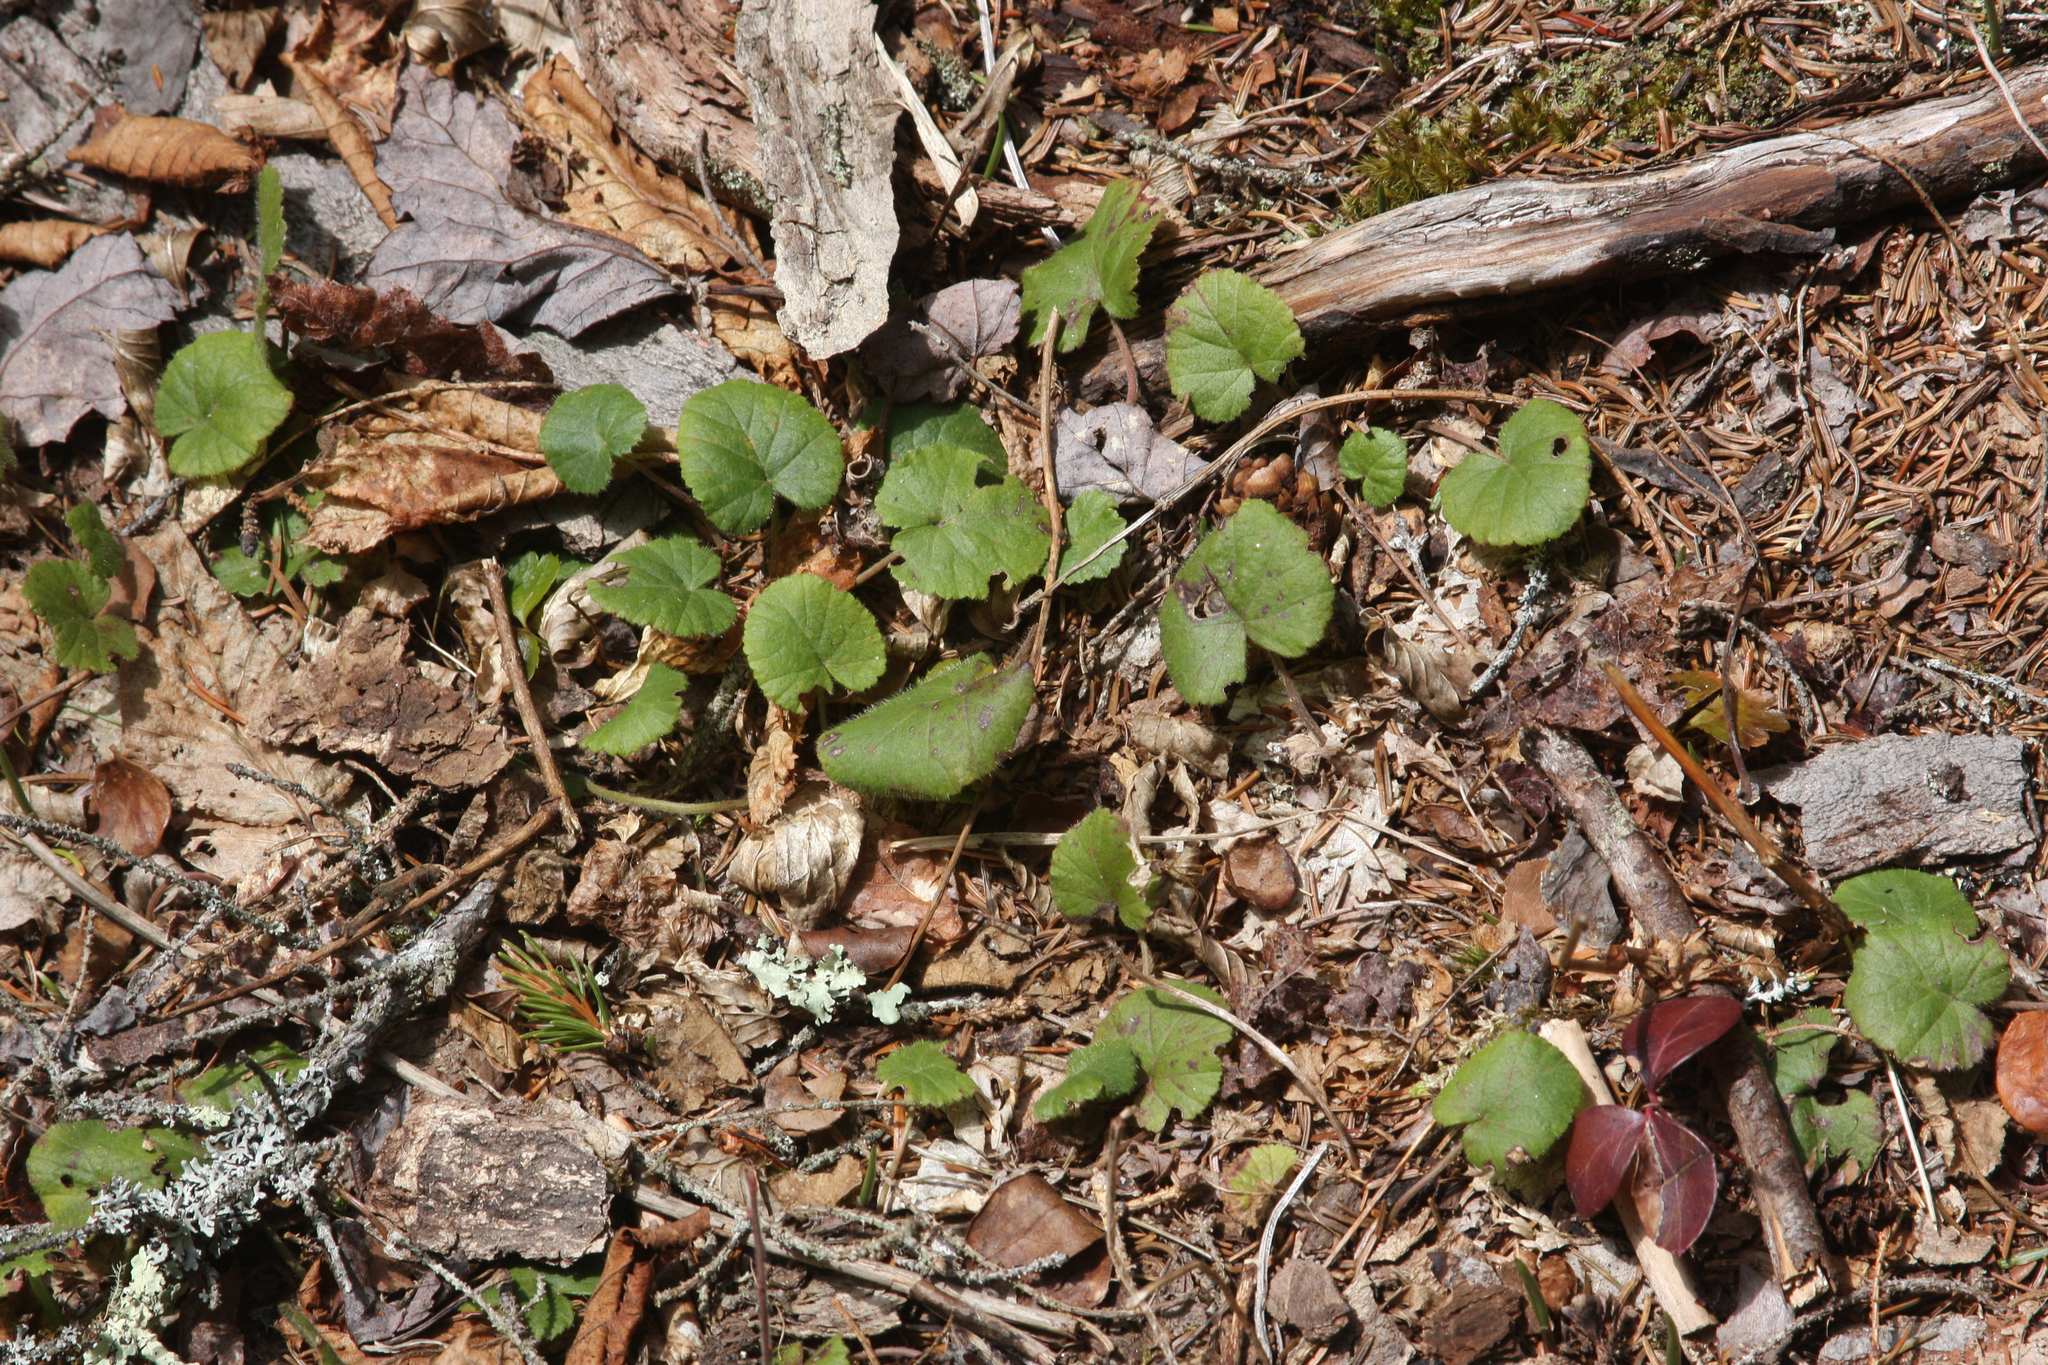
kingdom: Plantae
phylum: Tracheophyta
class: Magnoliopsida
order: Rosales
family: Rosaceae
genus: Dalibarda
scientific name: Dalibarda repens
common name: Dewdrop
